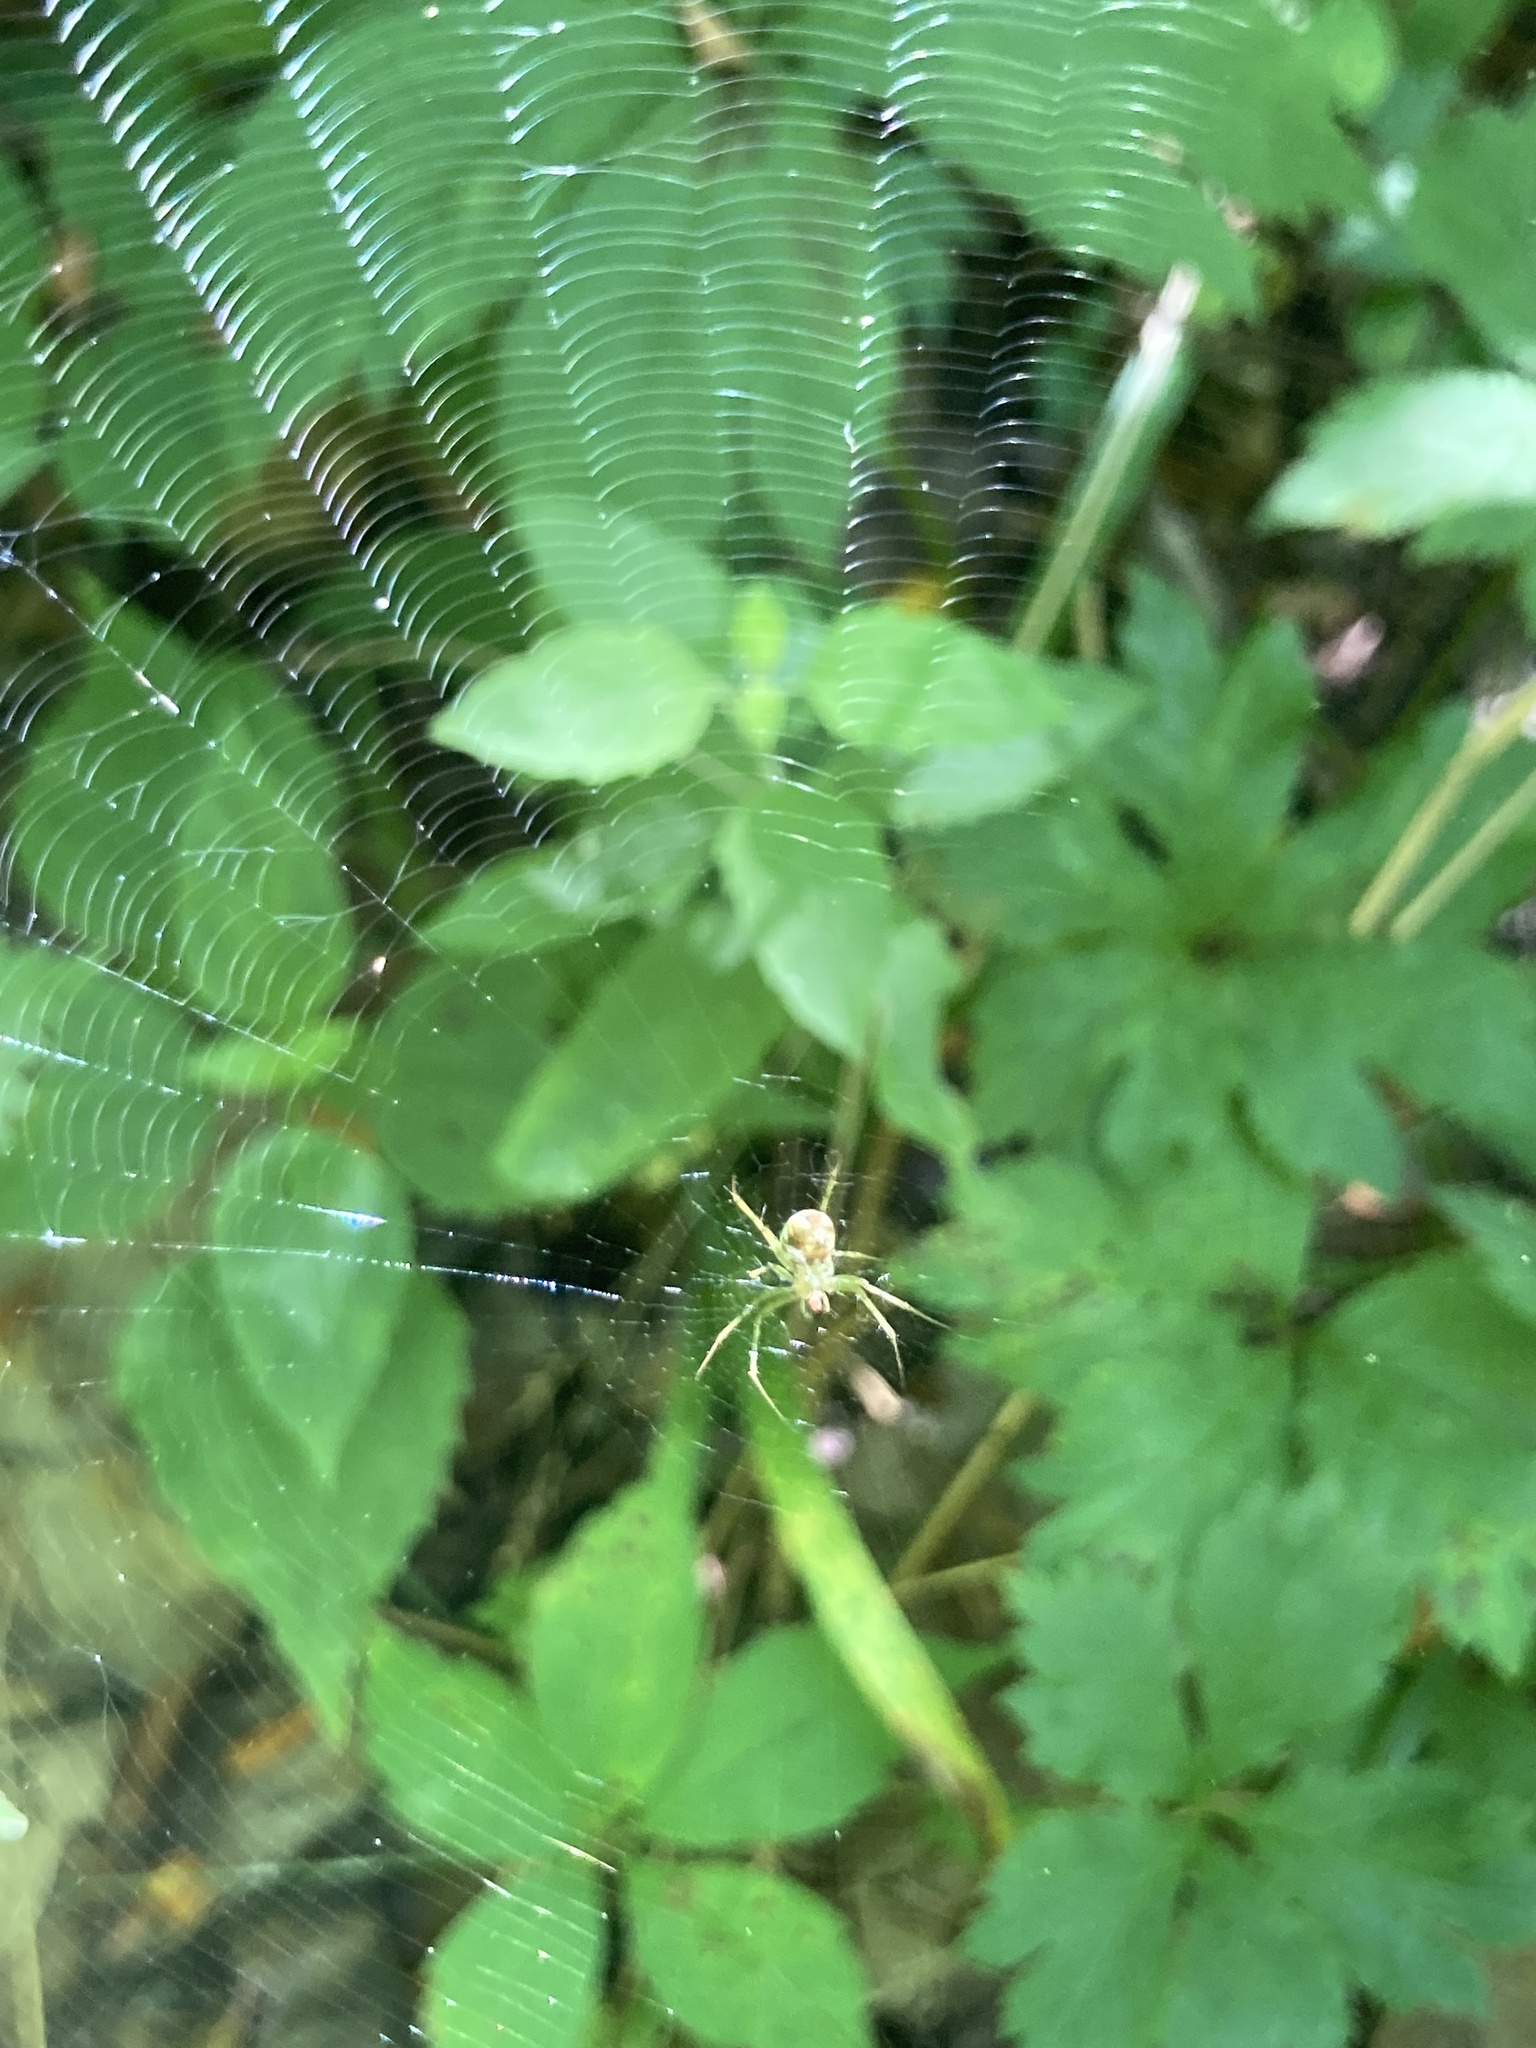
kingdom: Animalia
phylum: Arthropoda
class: Arachnida
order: Araneae
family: Tetragnathidae
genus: Leucauge
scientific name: Leucauge venusta
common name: Longjawed orb weavers
